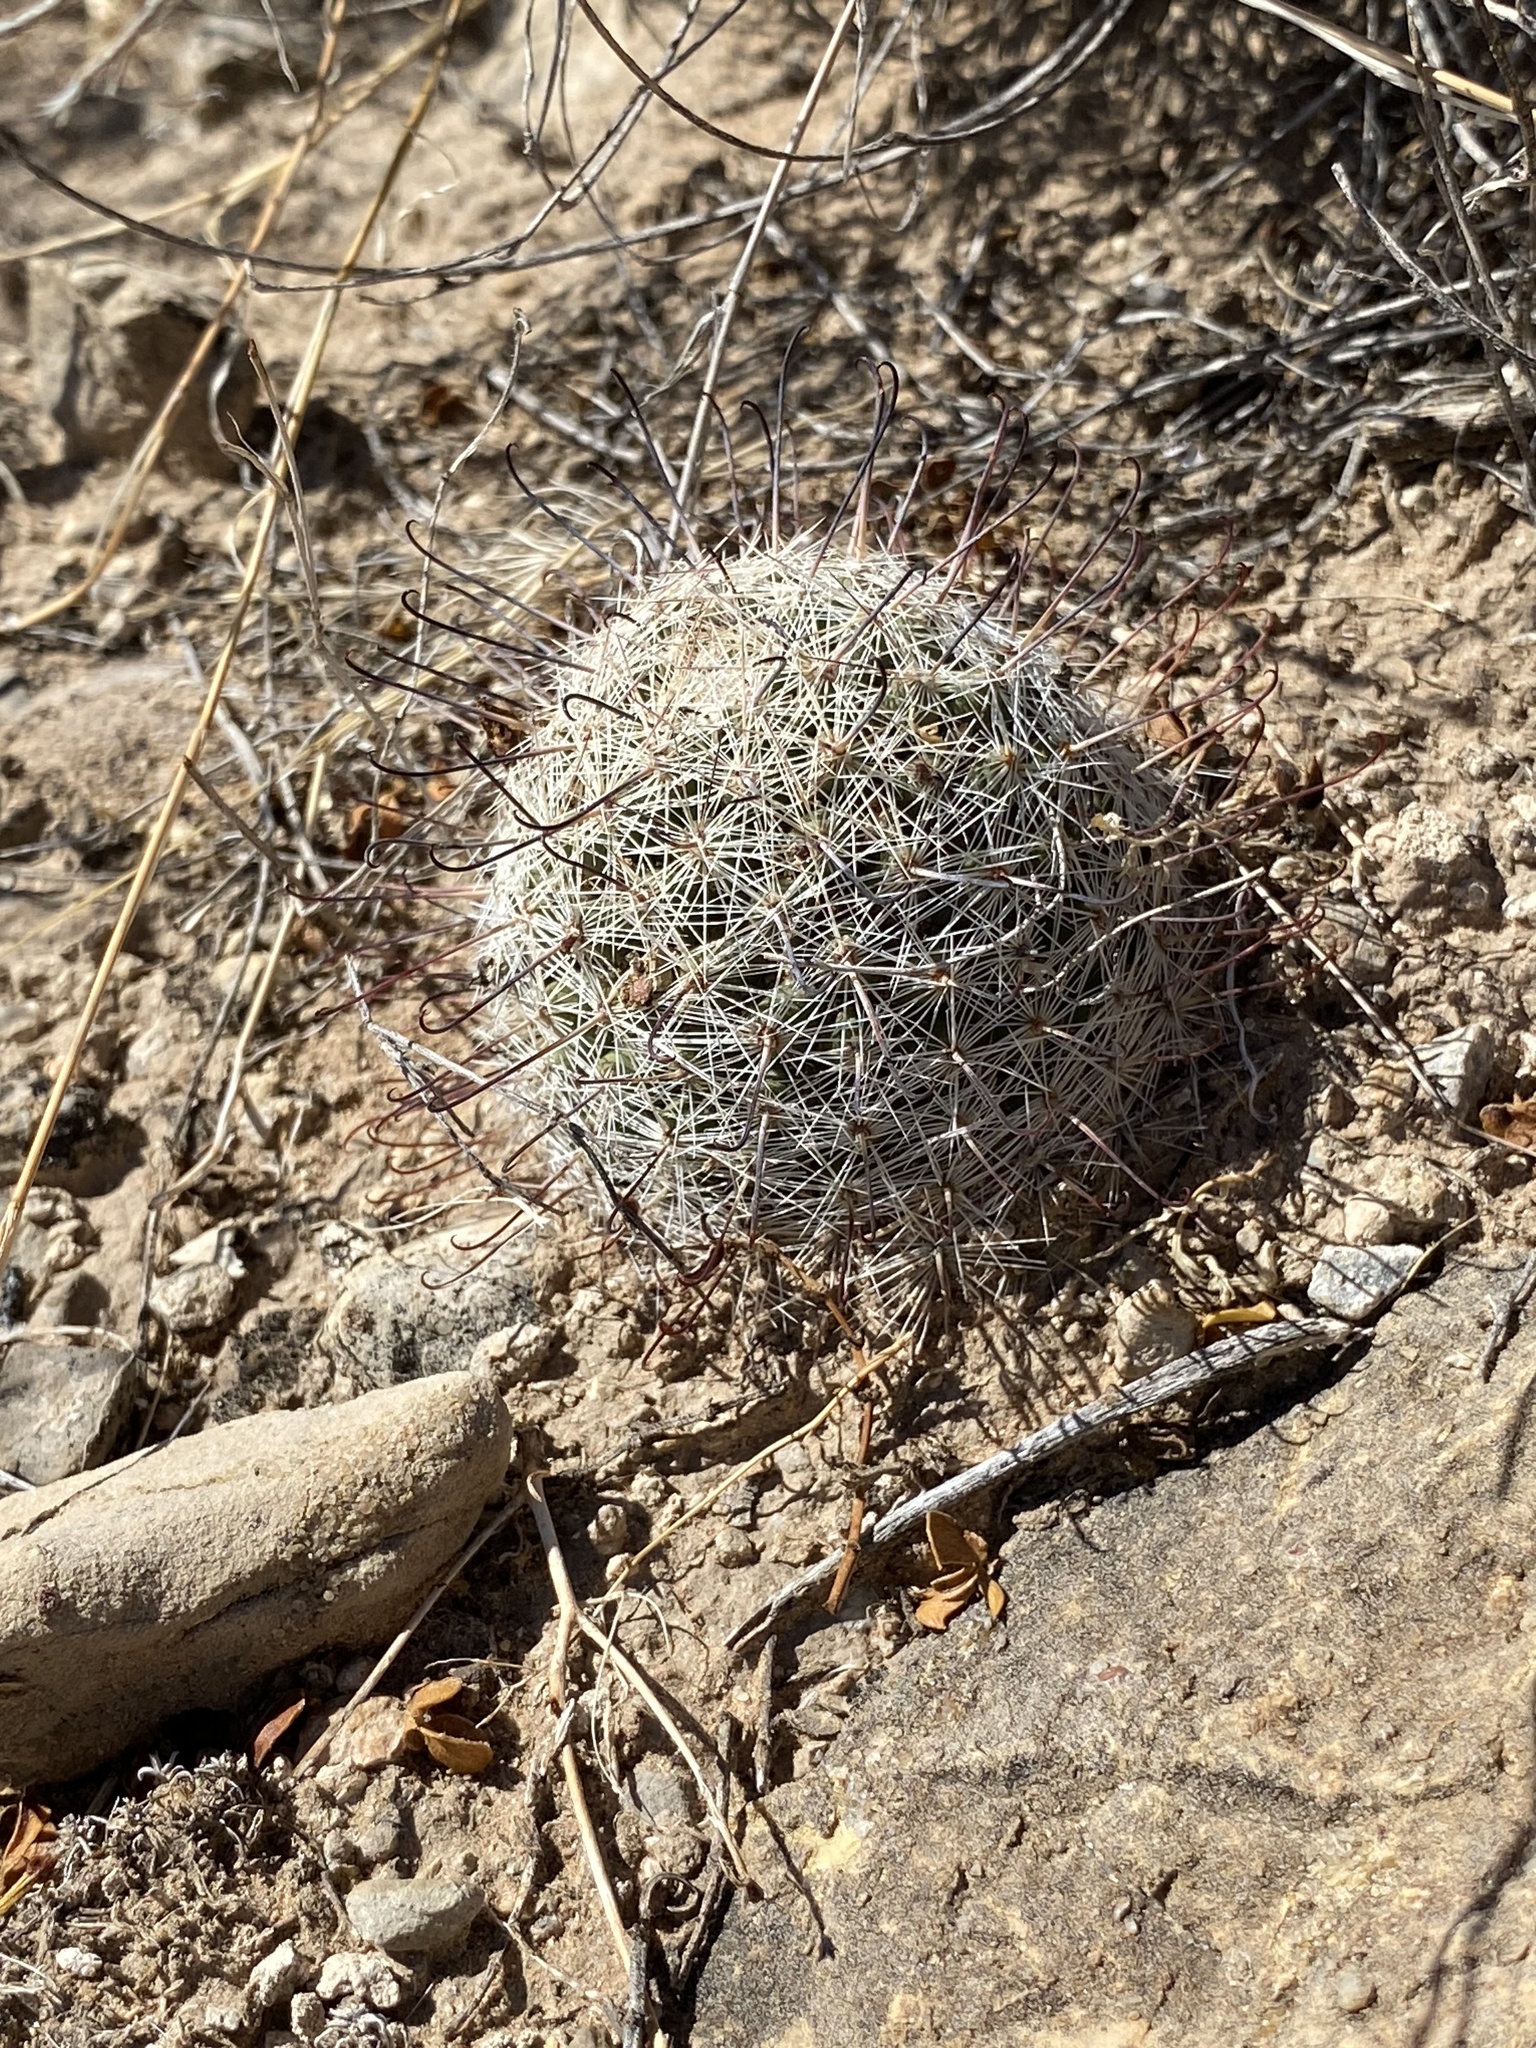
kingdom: Plantae
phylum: Tracheophyta
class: Magnoliopsida
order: Caryophyllales
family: Cactaceae
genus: Cochemiea
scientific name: Cochemiea grahamii
